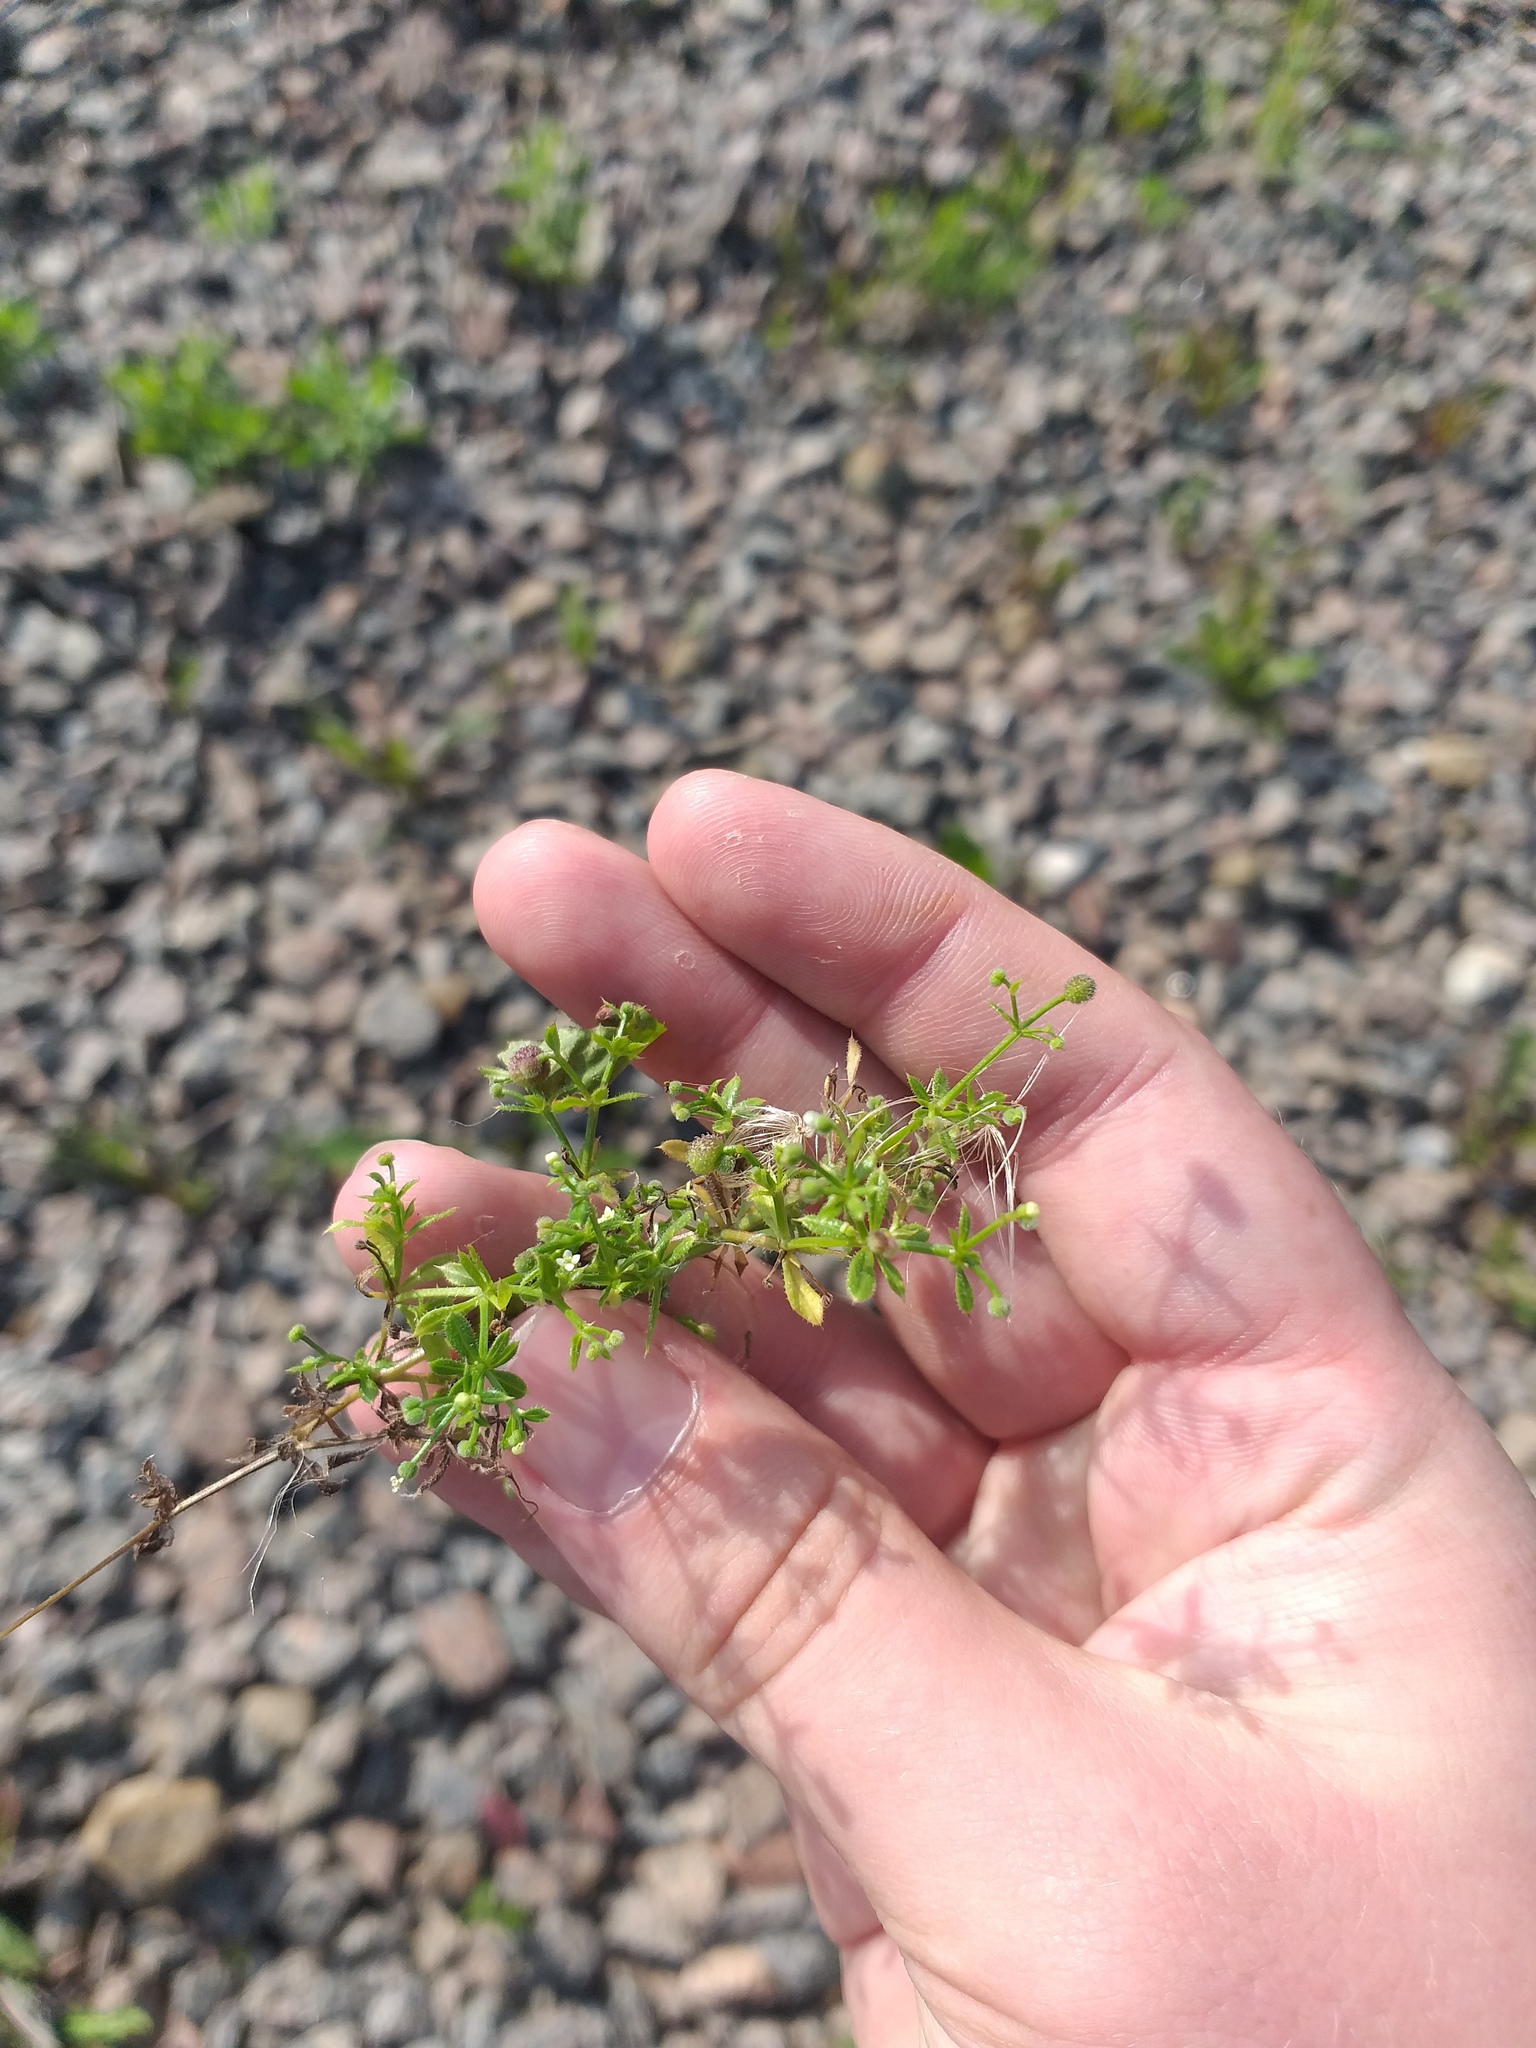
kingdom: Plantae
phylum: Tracheophyta
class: Magnoliopsida
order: Gentianales
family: Rubiaceae
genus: Galium
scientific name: Galium aparine
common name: Cleavers
